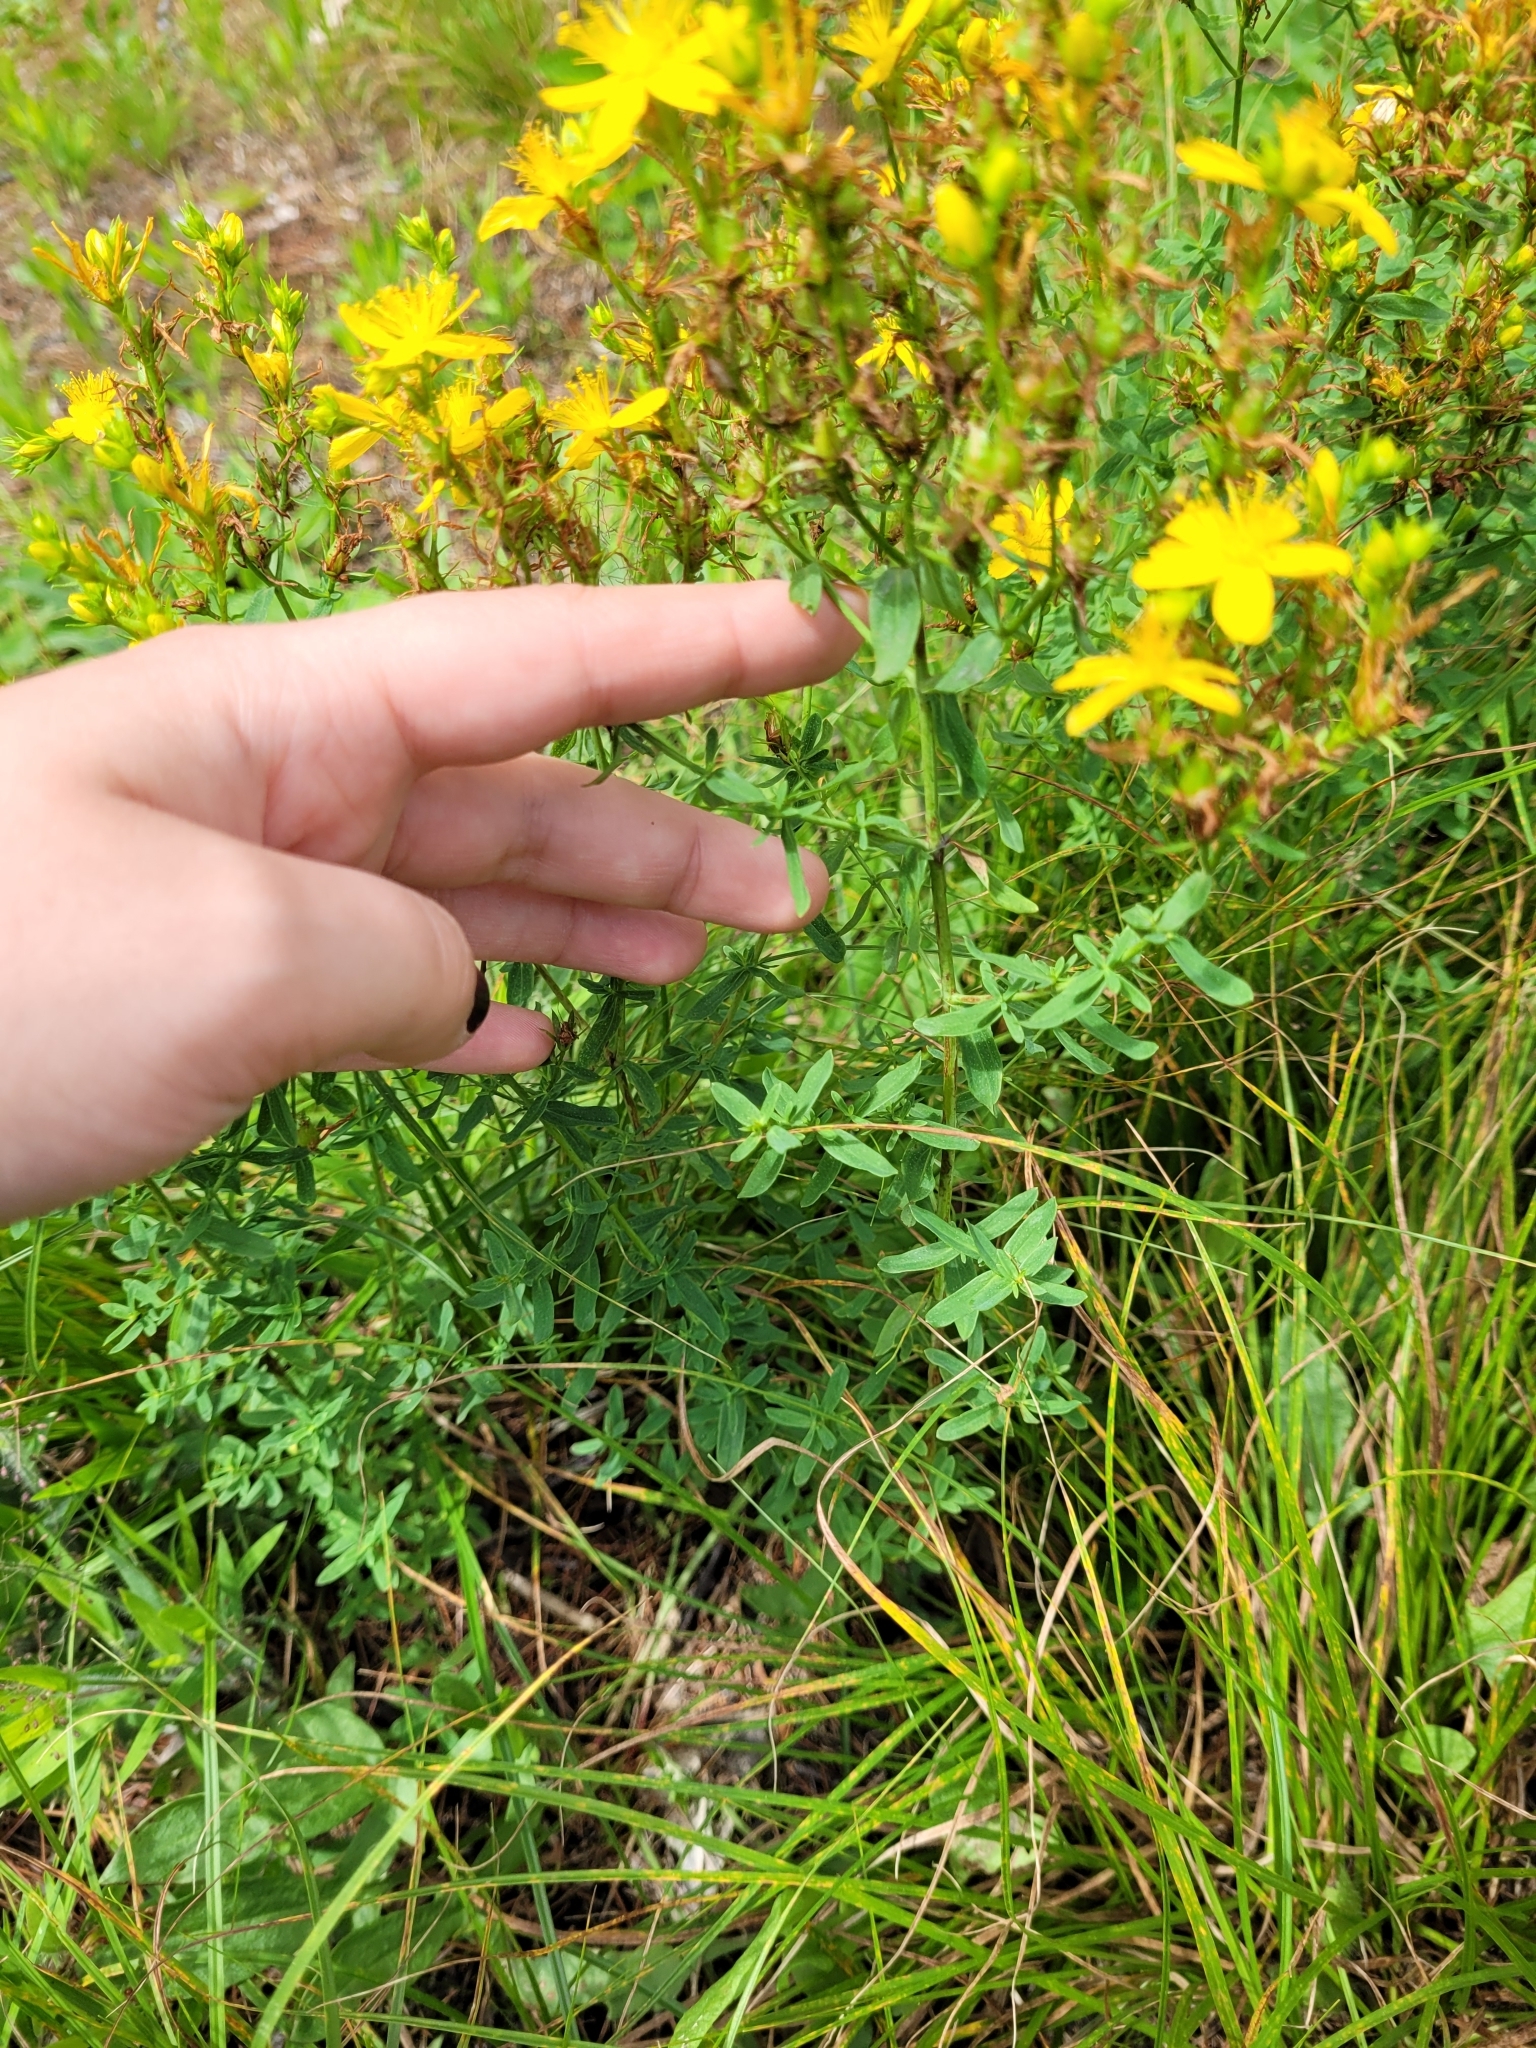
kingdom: Plantae
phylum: Tracheophyta
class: Magnoliopsida
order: Malpighiales
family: Hypericaceae
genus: Hypericum
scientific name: Hypericum perforatum
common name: Common st. johnswort
